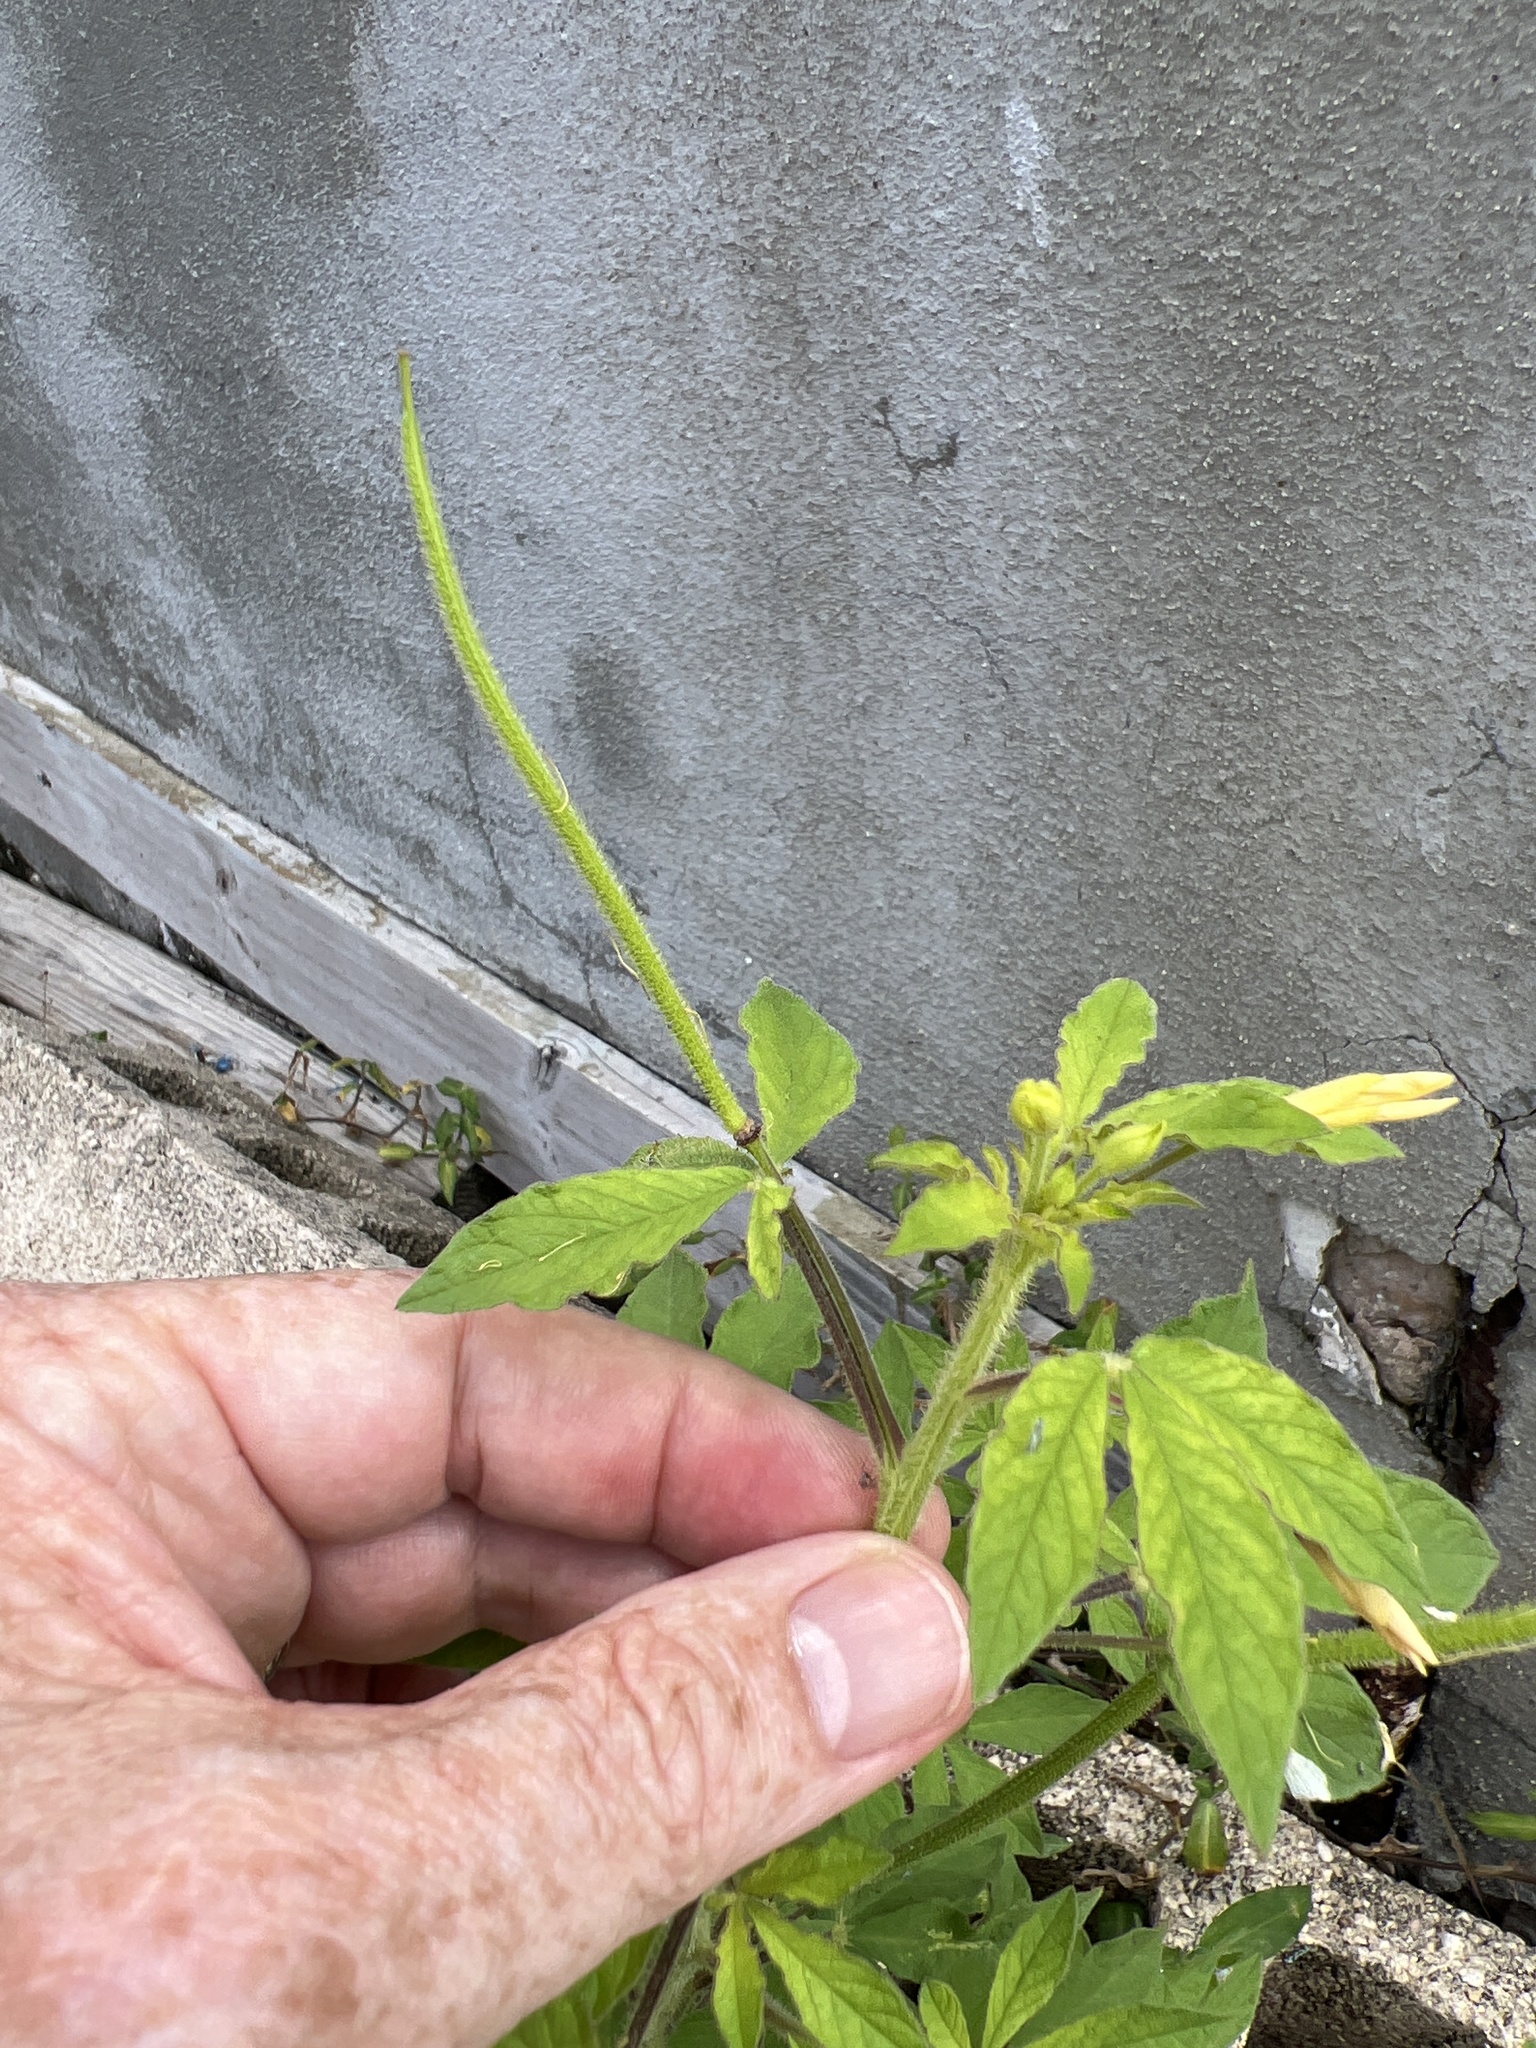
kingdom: Plantae
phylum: Tracheophyta
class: Magnoliopsida
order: Brassicales
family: Cleomaceae
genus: Arivela
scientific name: Arivela viscosa
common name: Asian spiderflower
